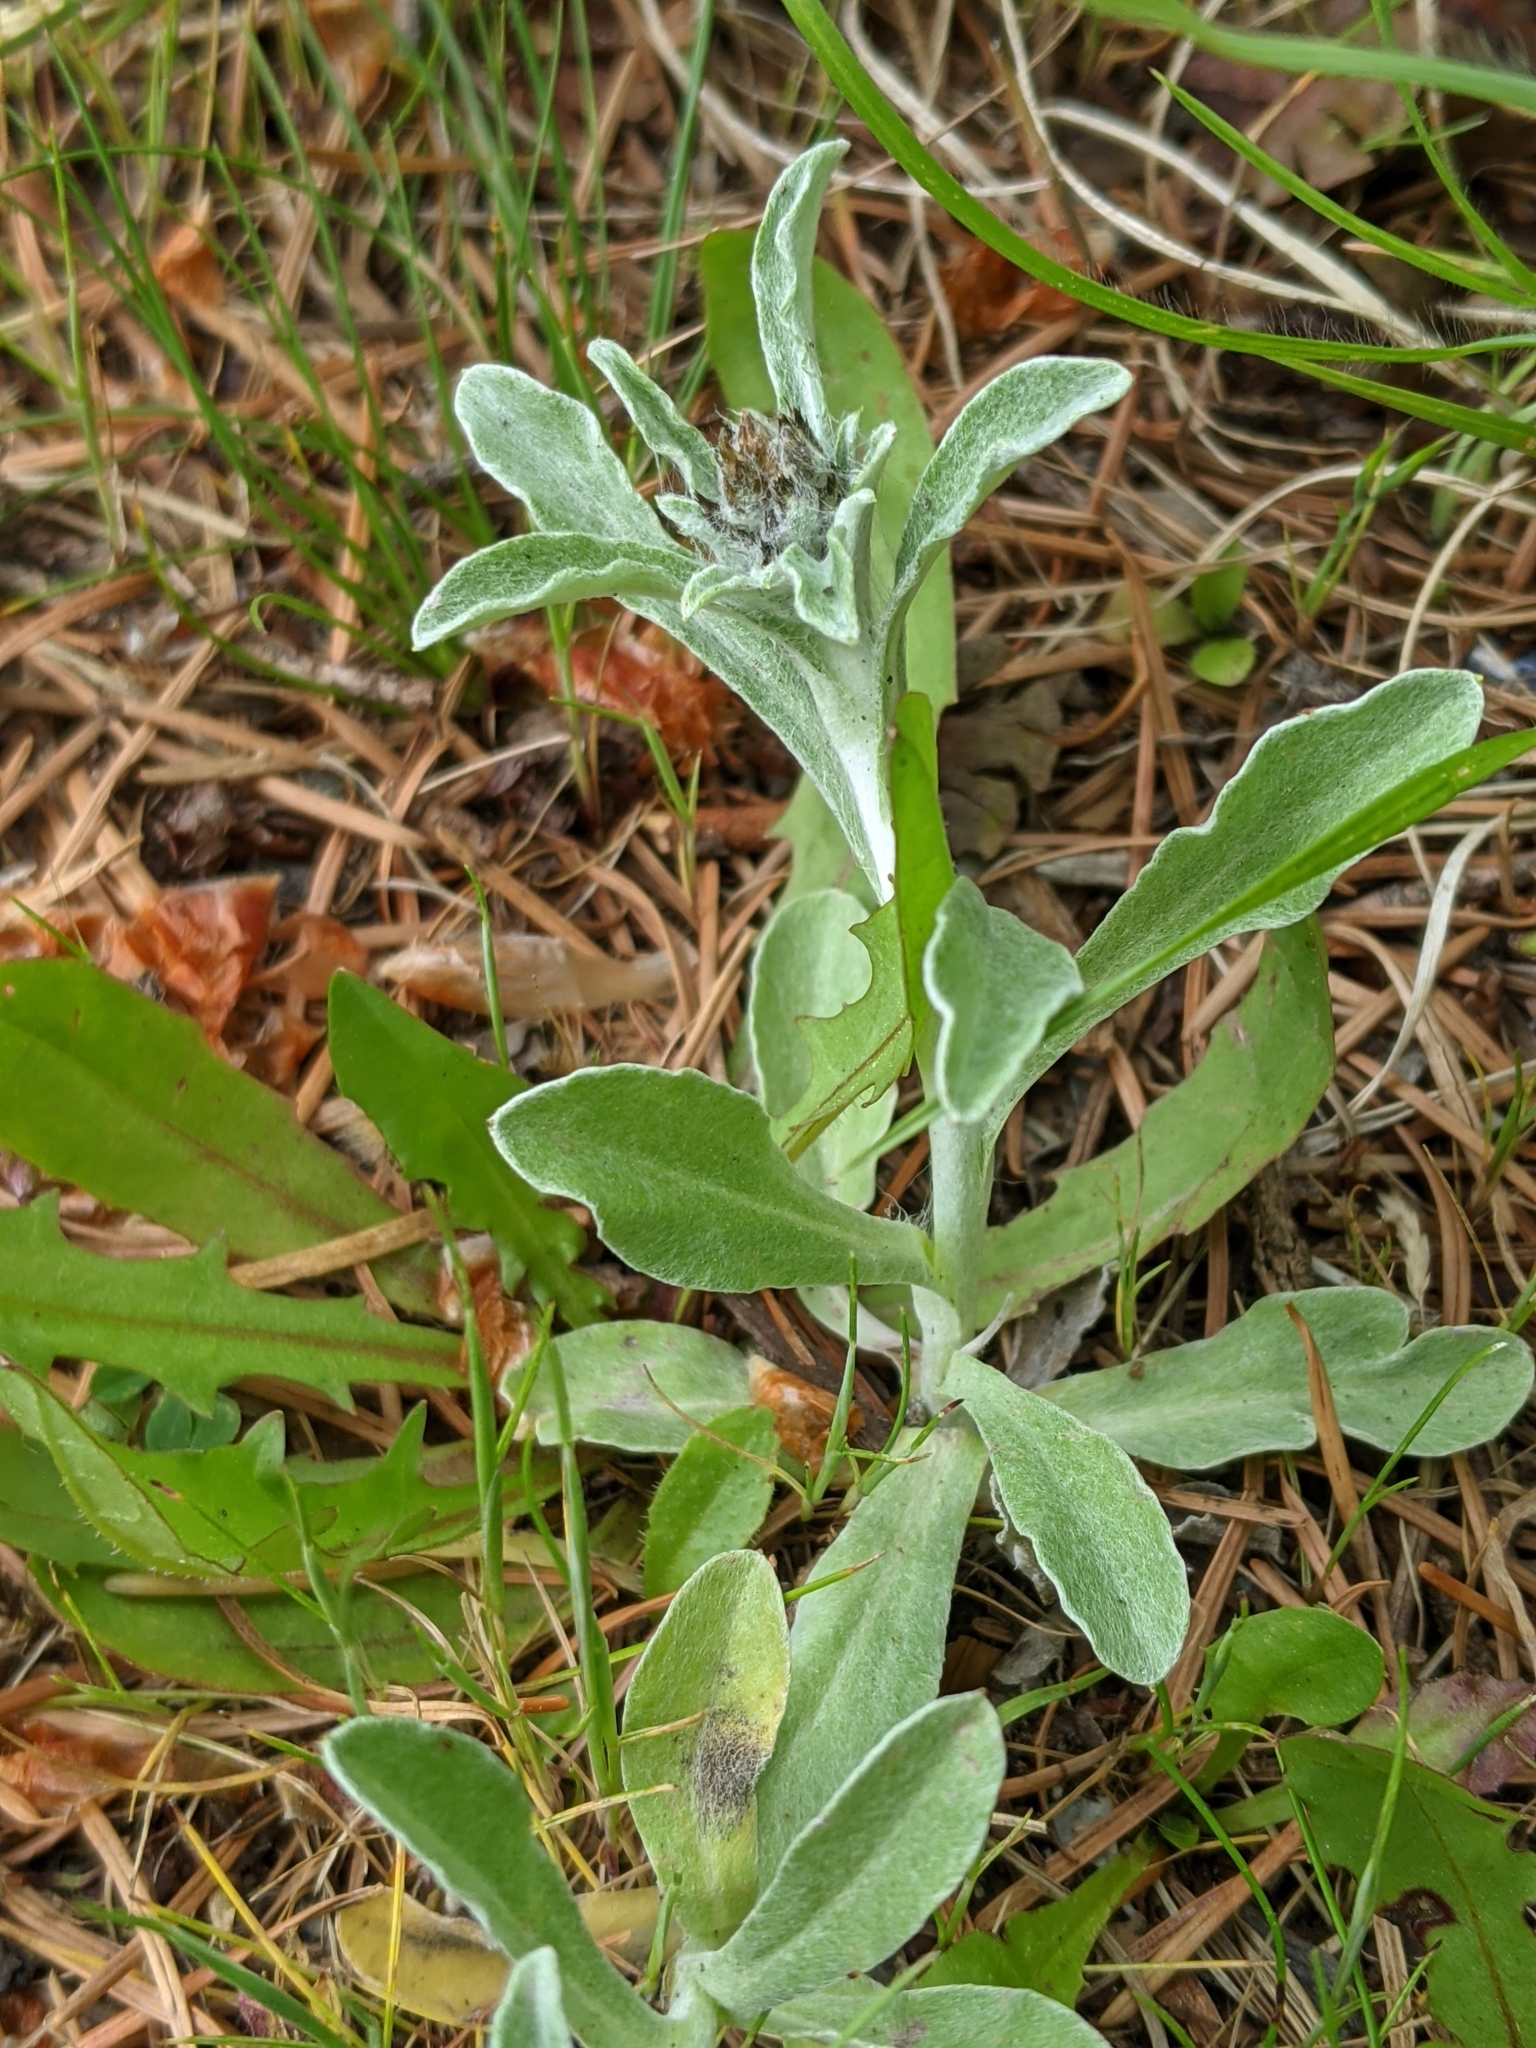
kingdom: Plantae
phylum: Tracheophyta
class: Magnoliopsida
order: Asterales
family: Asteraceae
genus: Gamochaeta
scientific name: Gamochaeta ustulata
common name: Pacific cudweed
